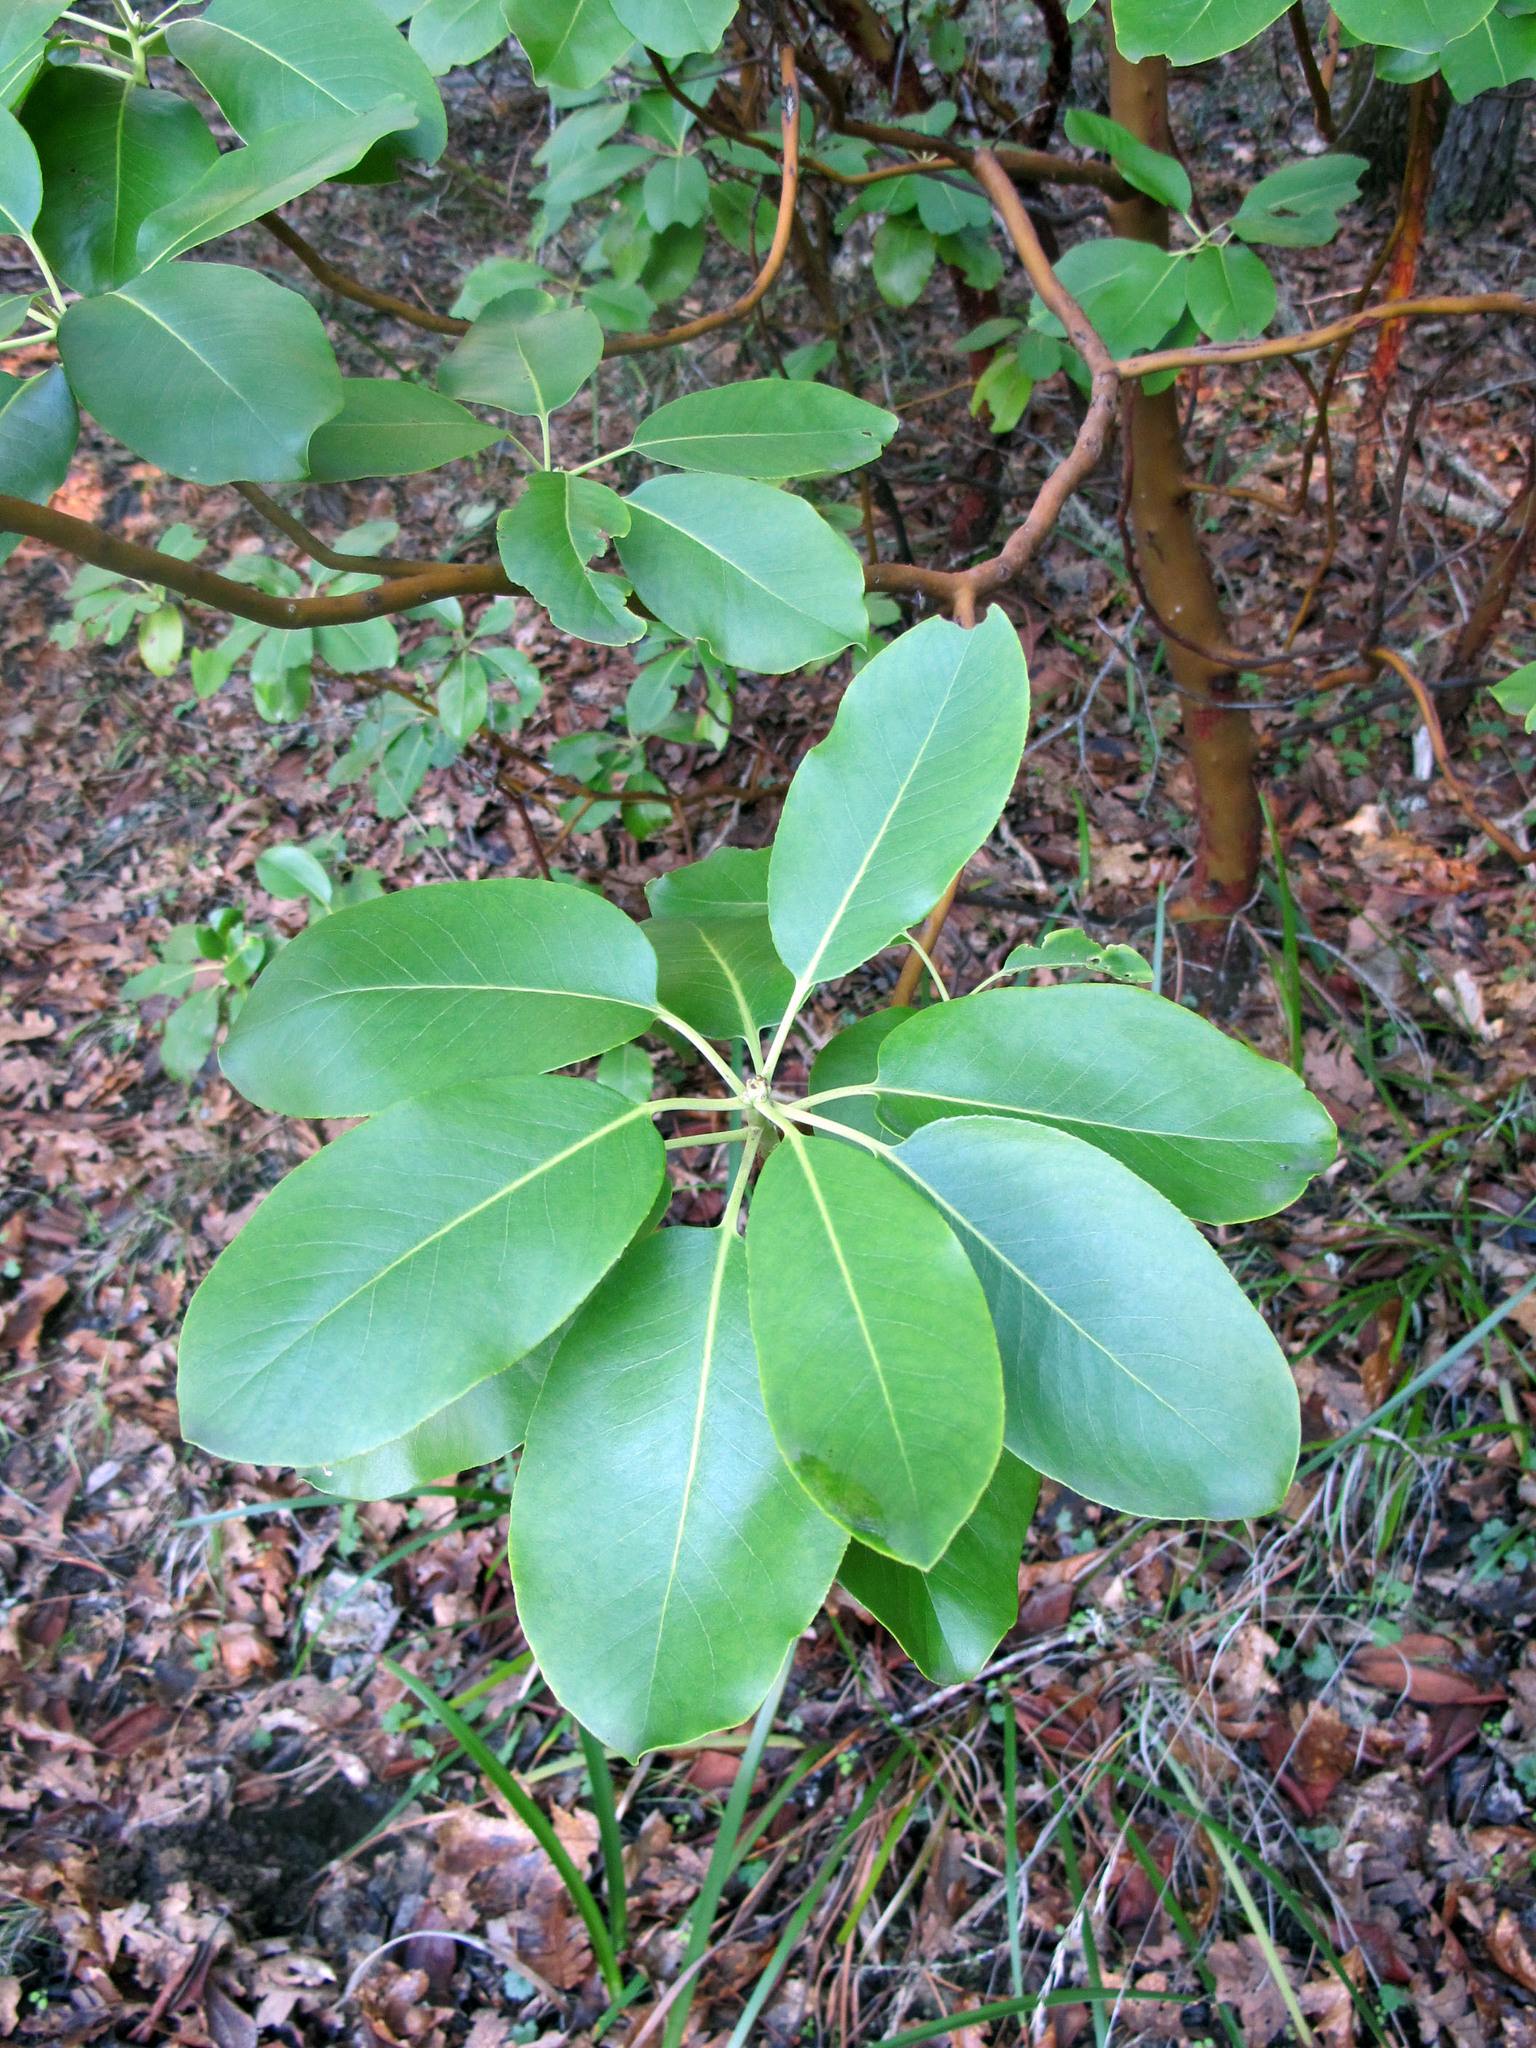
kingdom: Plantae
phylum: Tracheophyta
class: Magnoliopsida
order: Ericales
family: Ericaceae
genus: Arbutus
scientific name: Arbutus menziesii
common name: Pacific madrone
